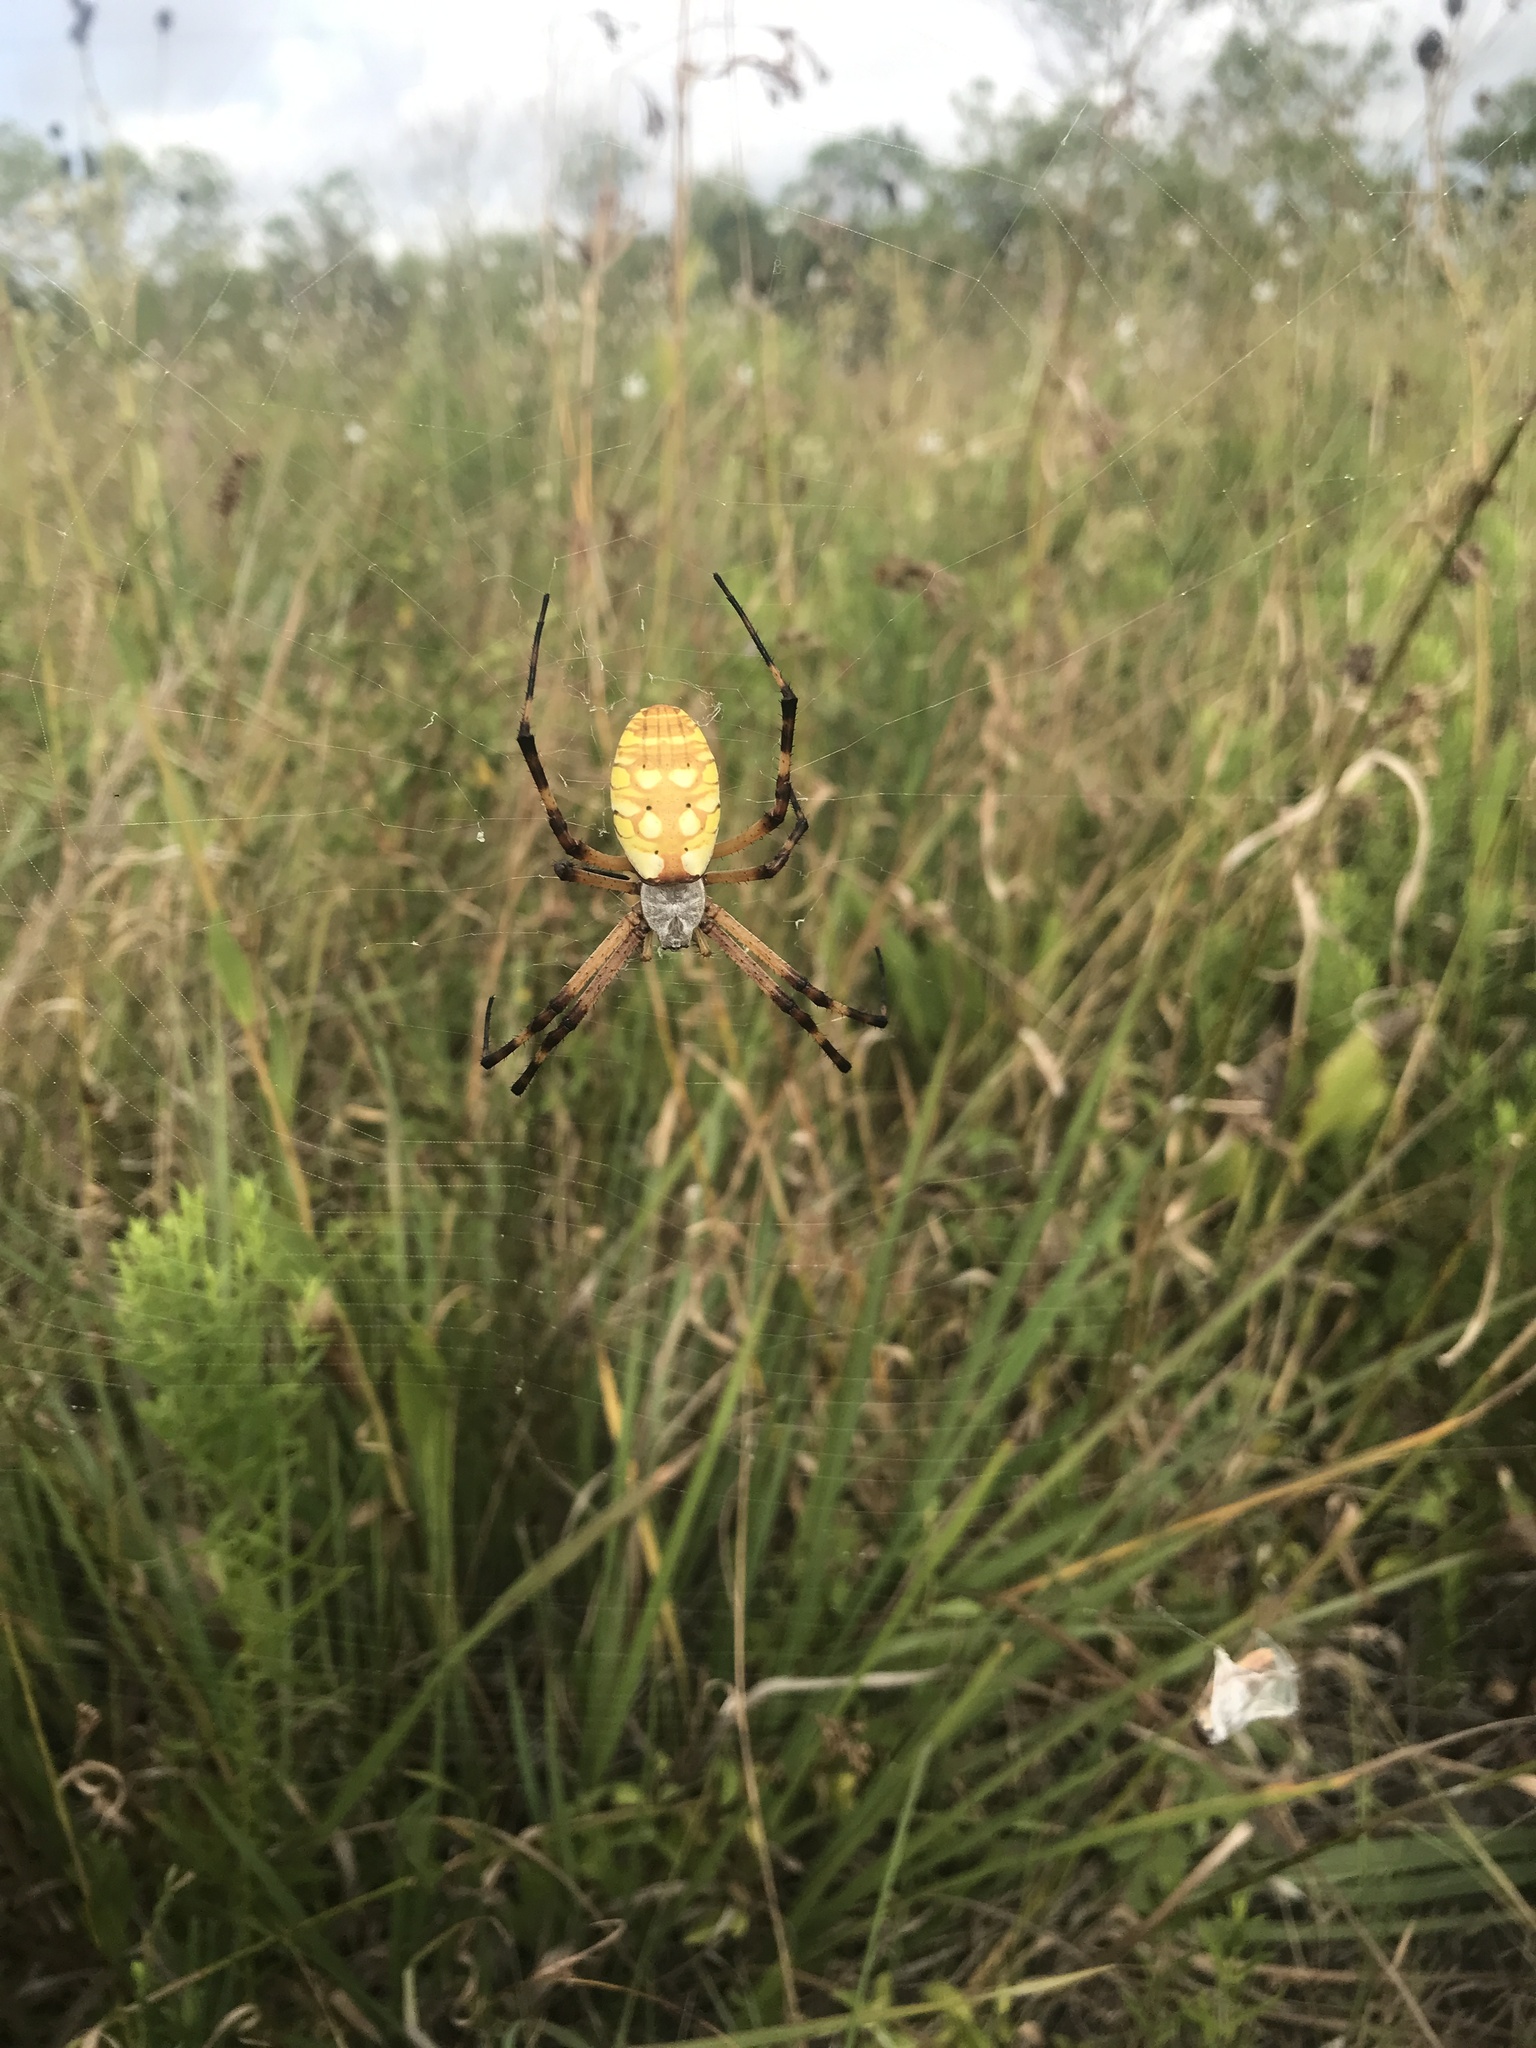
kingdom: Animalia
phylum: Arthropoda
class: Arachnida
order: Araneae
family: Araneidae
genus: Argiope
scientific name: Argiope aurantia
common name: Orb weavers
